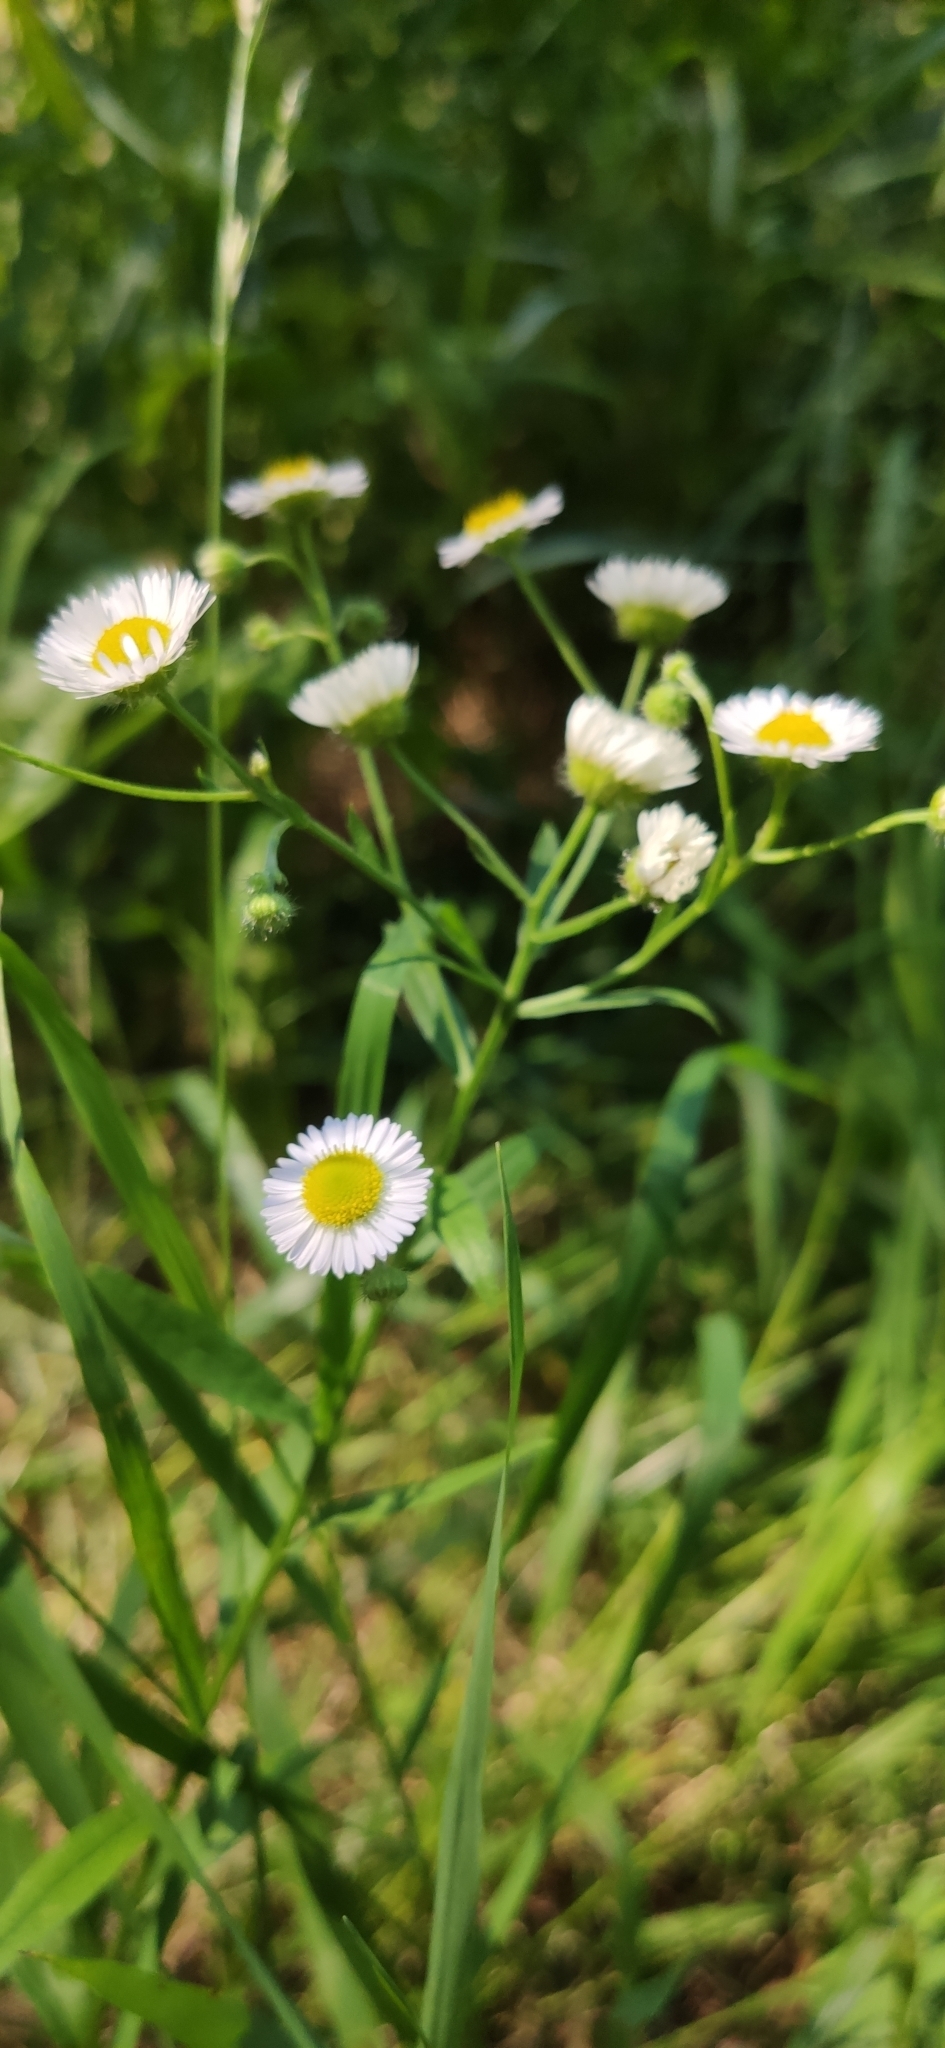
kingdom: Plantae
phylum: Tracheophyta
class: Magnoliopsida
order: Asterales
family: Asteraceae
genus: Erigeron
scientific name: Erigeron annuus
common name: Tall fleabane
